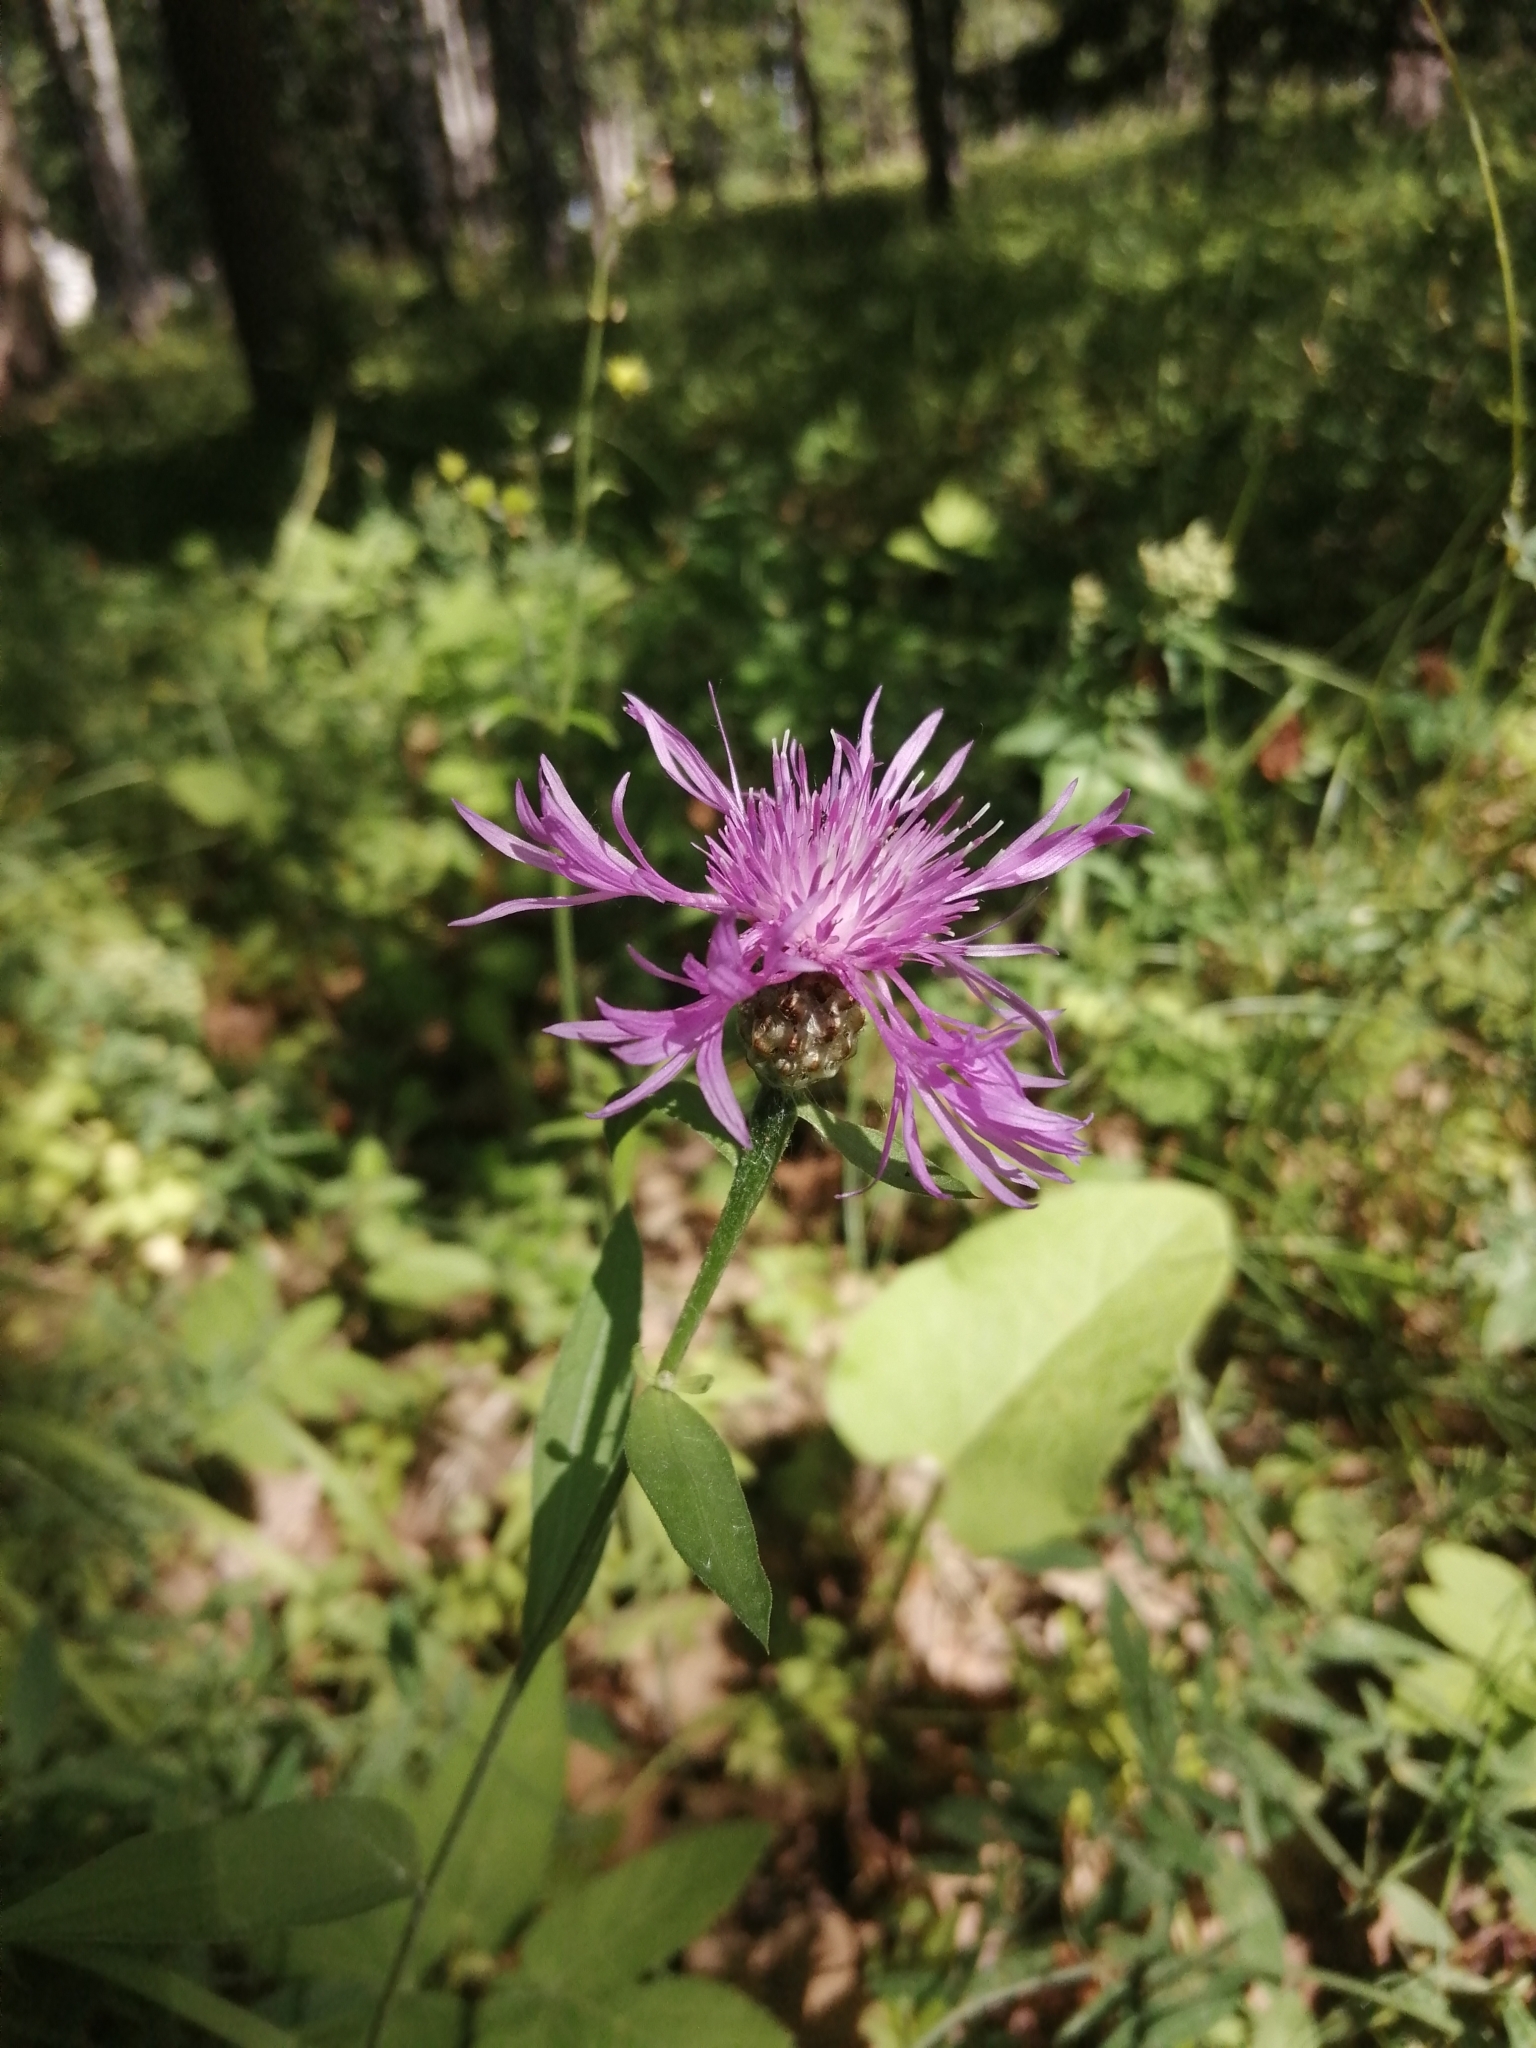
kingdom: Plantae
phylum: Tracheophyta
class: Magnoliopsida
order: Asterales
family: Asteraceae
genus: Centaurea
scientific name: Centaurea jacea
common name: Brown knapweed
